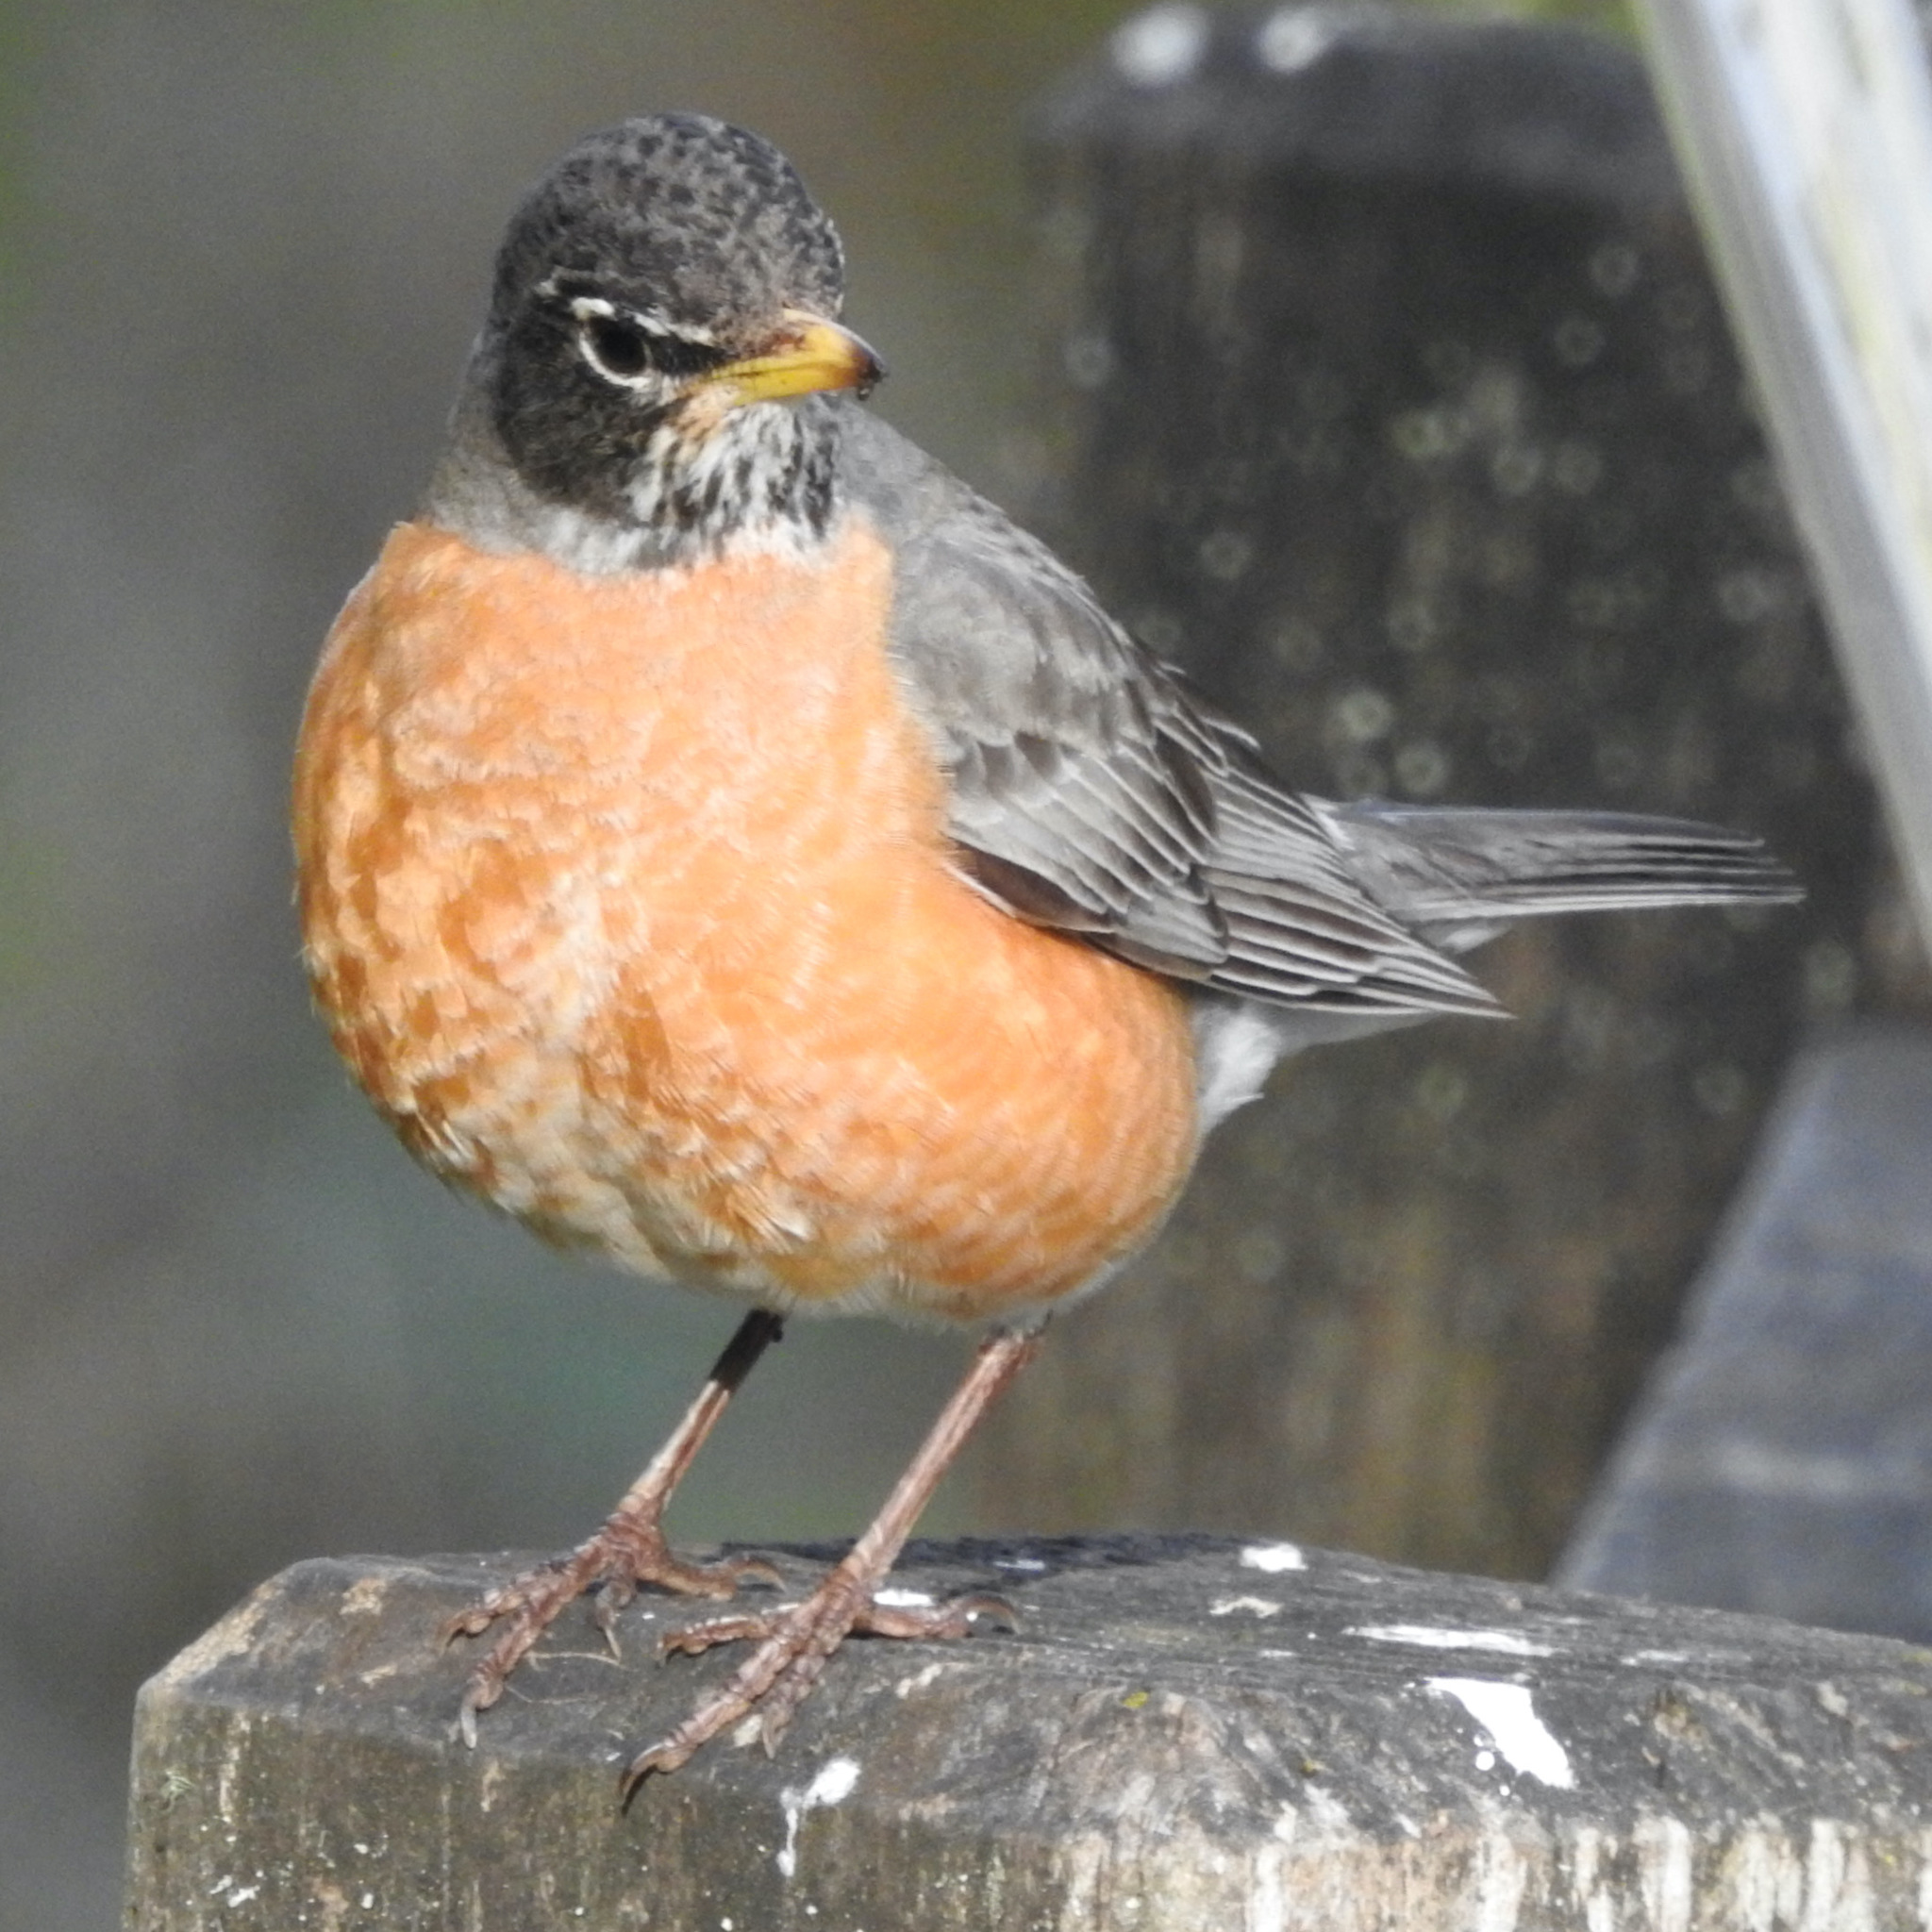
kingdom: Animalia
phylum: Chordata
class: Aves
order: Passeriformes
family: Turdidae
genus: Turdus
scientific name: Turdus migratorius
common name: American robin
